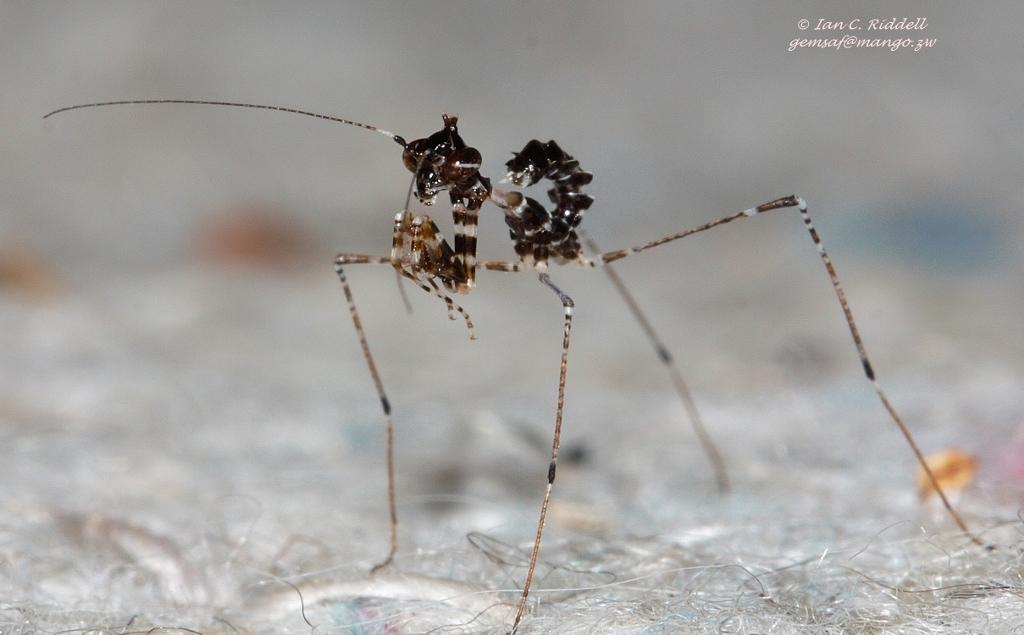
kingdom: Animalia
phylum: Arthropoda
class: Insecta
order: Mantodea
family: Hymenopodidae
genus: Sibylla
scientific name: Sibylla pretiosa
